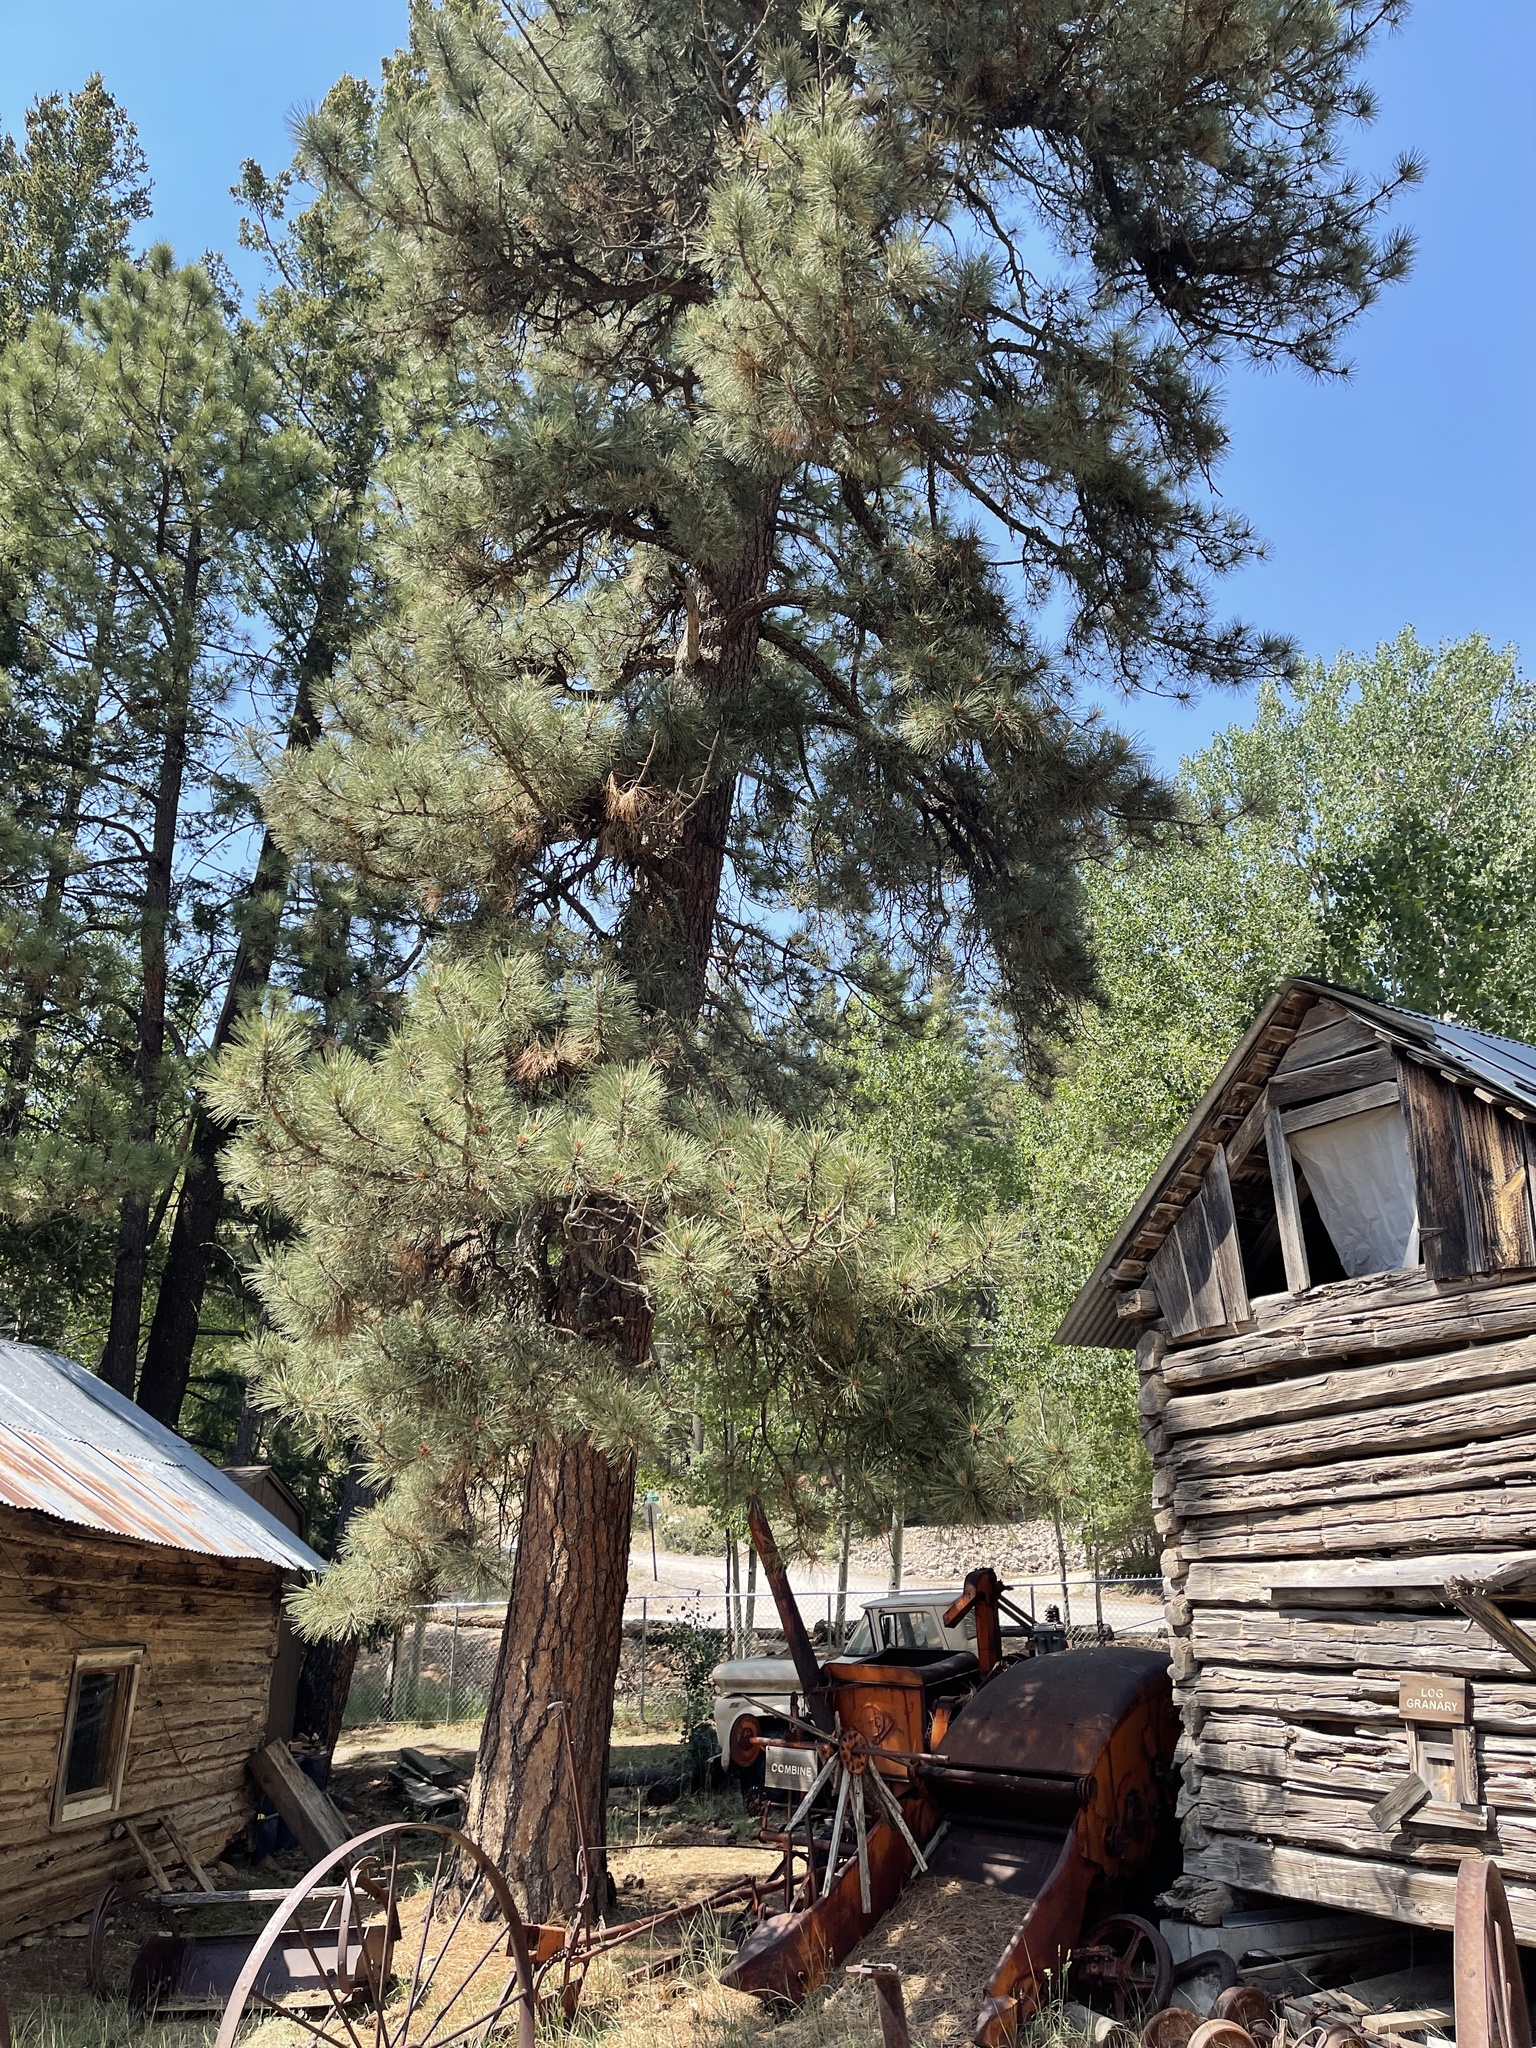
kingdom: Plantae
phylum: Tracheophyta
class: Pinopsida
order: Pinales
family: Pinaceae
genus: Pinus
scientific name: Pinus ponderosa
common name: Western yellow-pine
